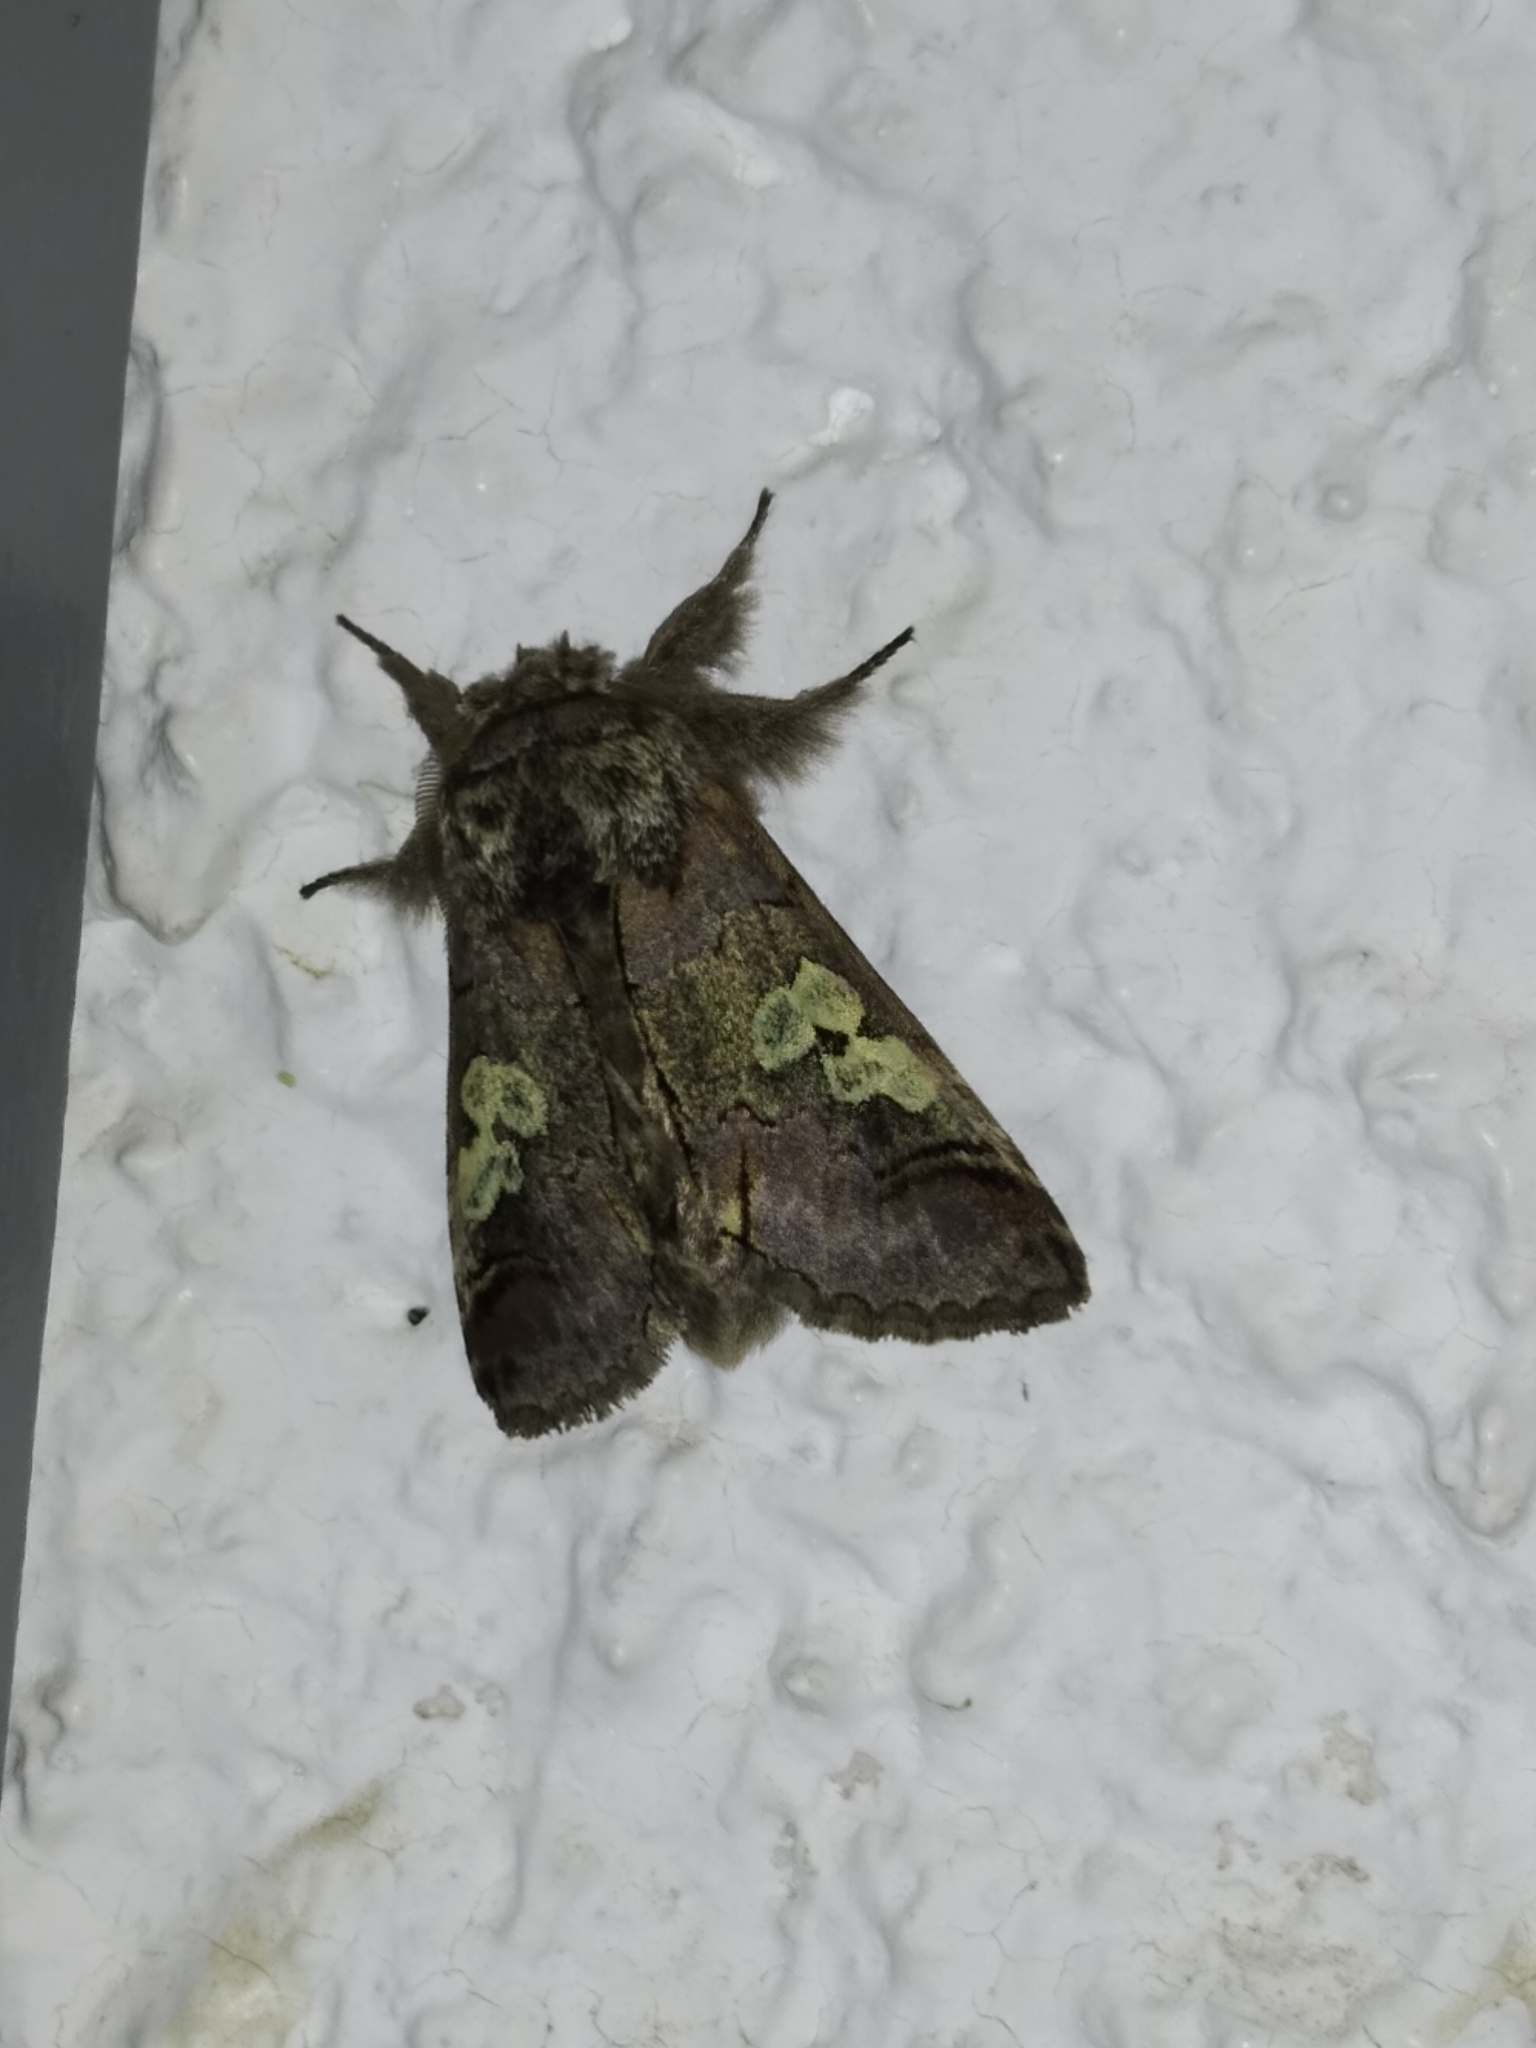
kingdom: Animalia
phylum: Arthropoda
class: Insecta
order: Lepidoptera
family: Noctuidae
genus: Diloba
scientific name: Diloba caeruleocephala
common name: Figure of eight
